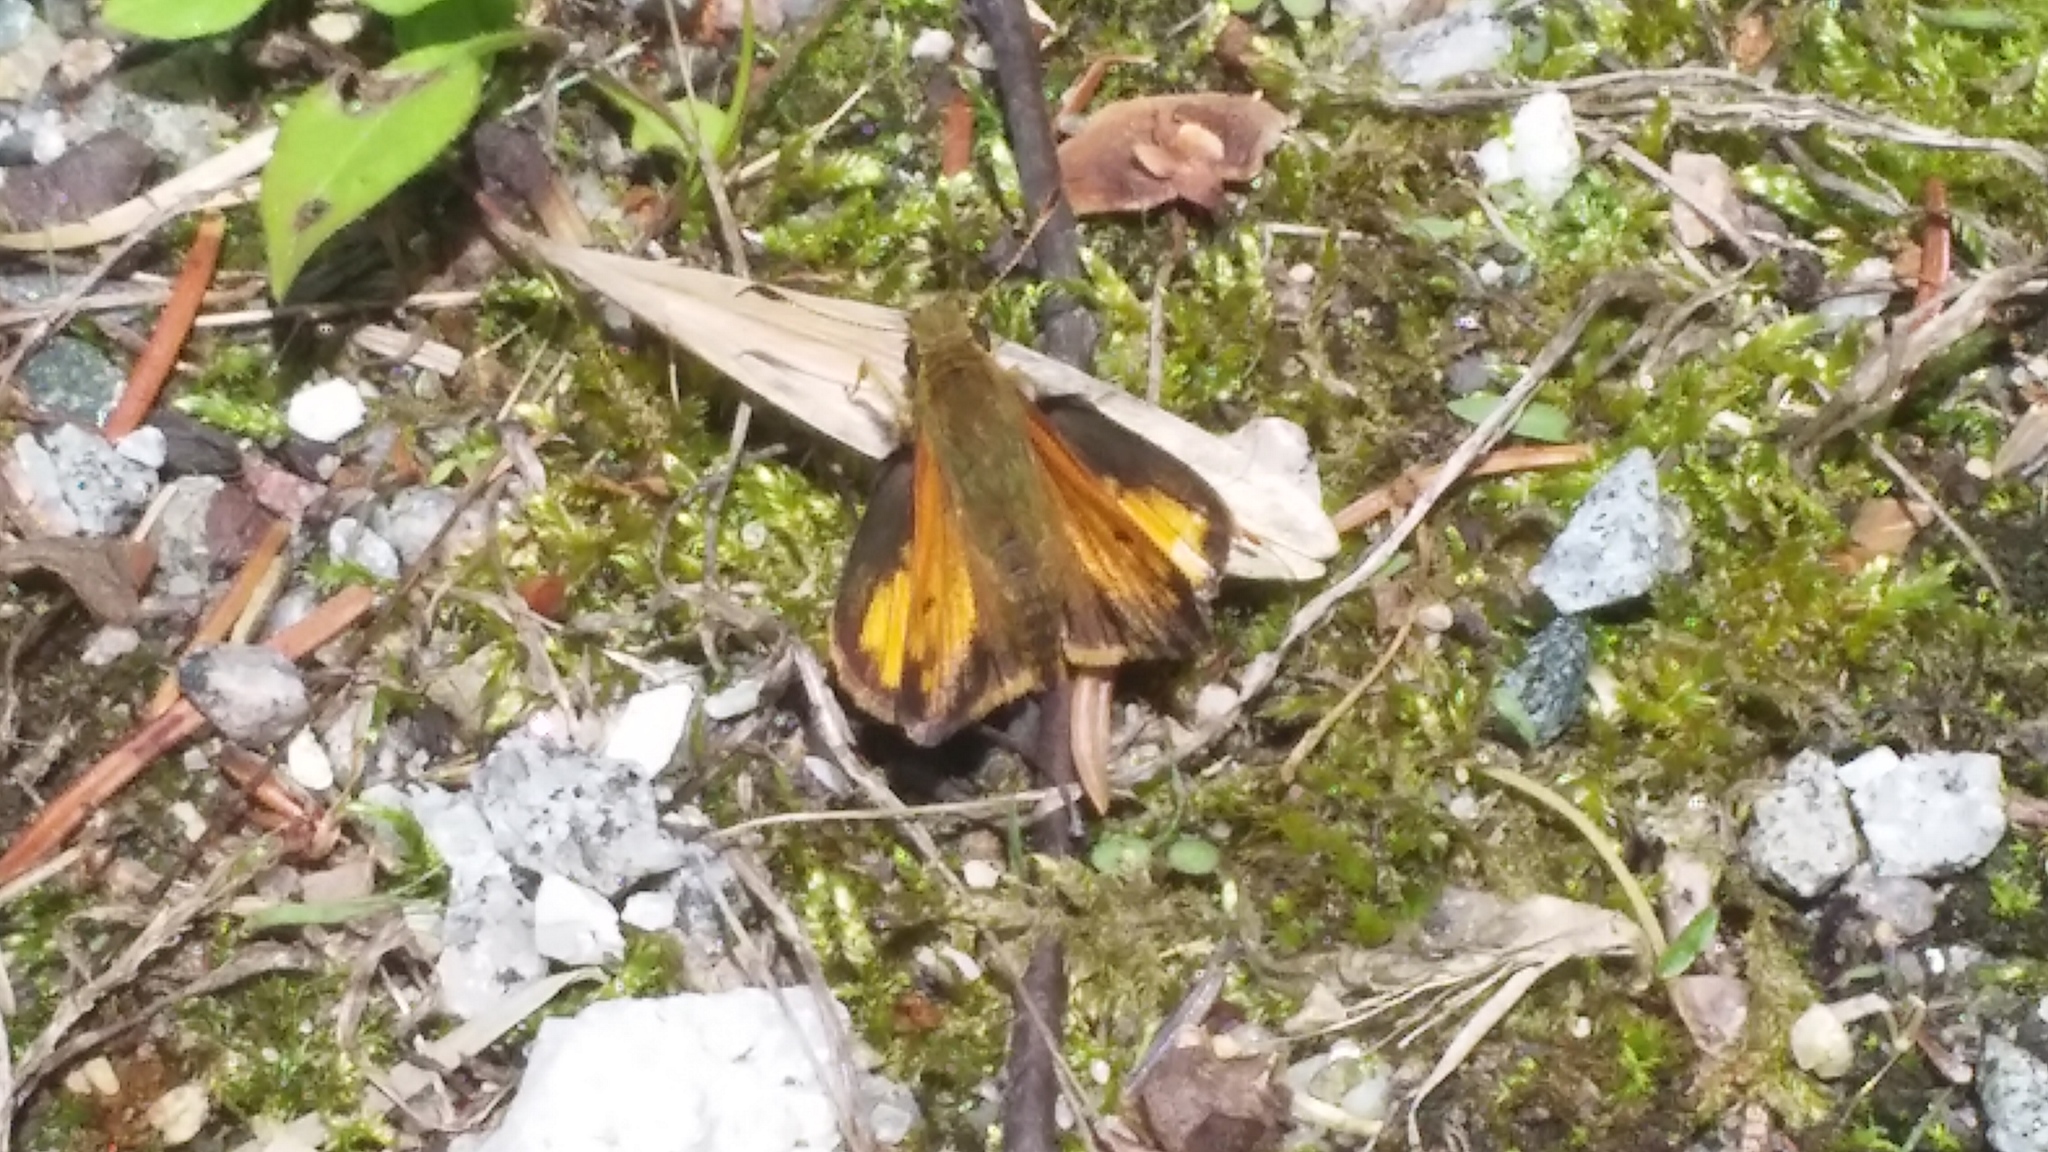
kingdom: Animalia
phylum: Arthropoda
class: Insecta
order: Lepidoptera
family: Hesperiidae
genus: Lon
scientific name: Lon hobomok
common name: Hobomok skipper
